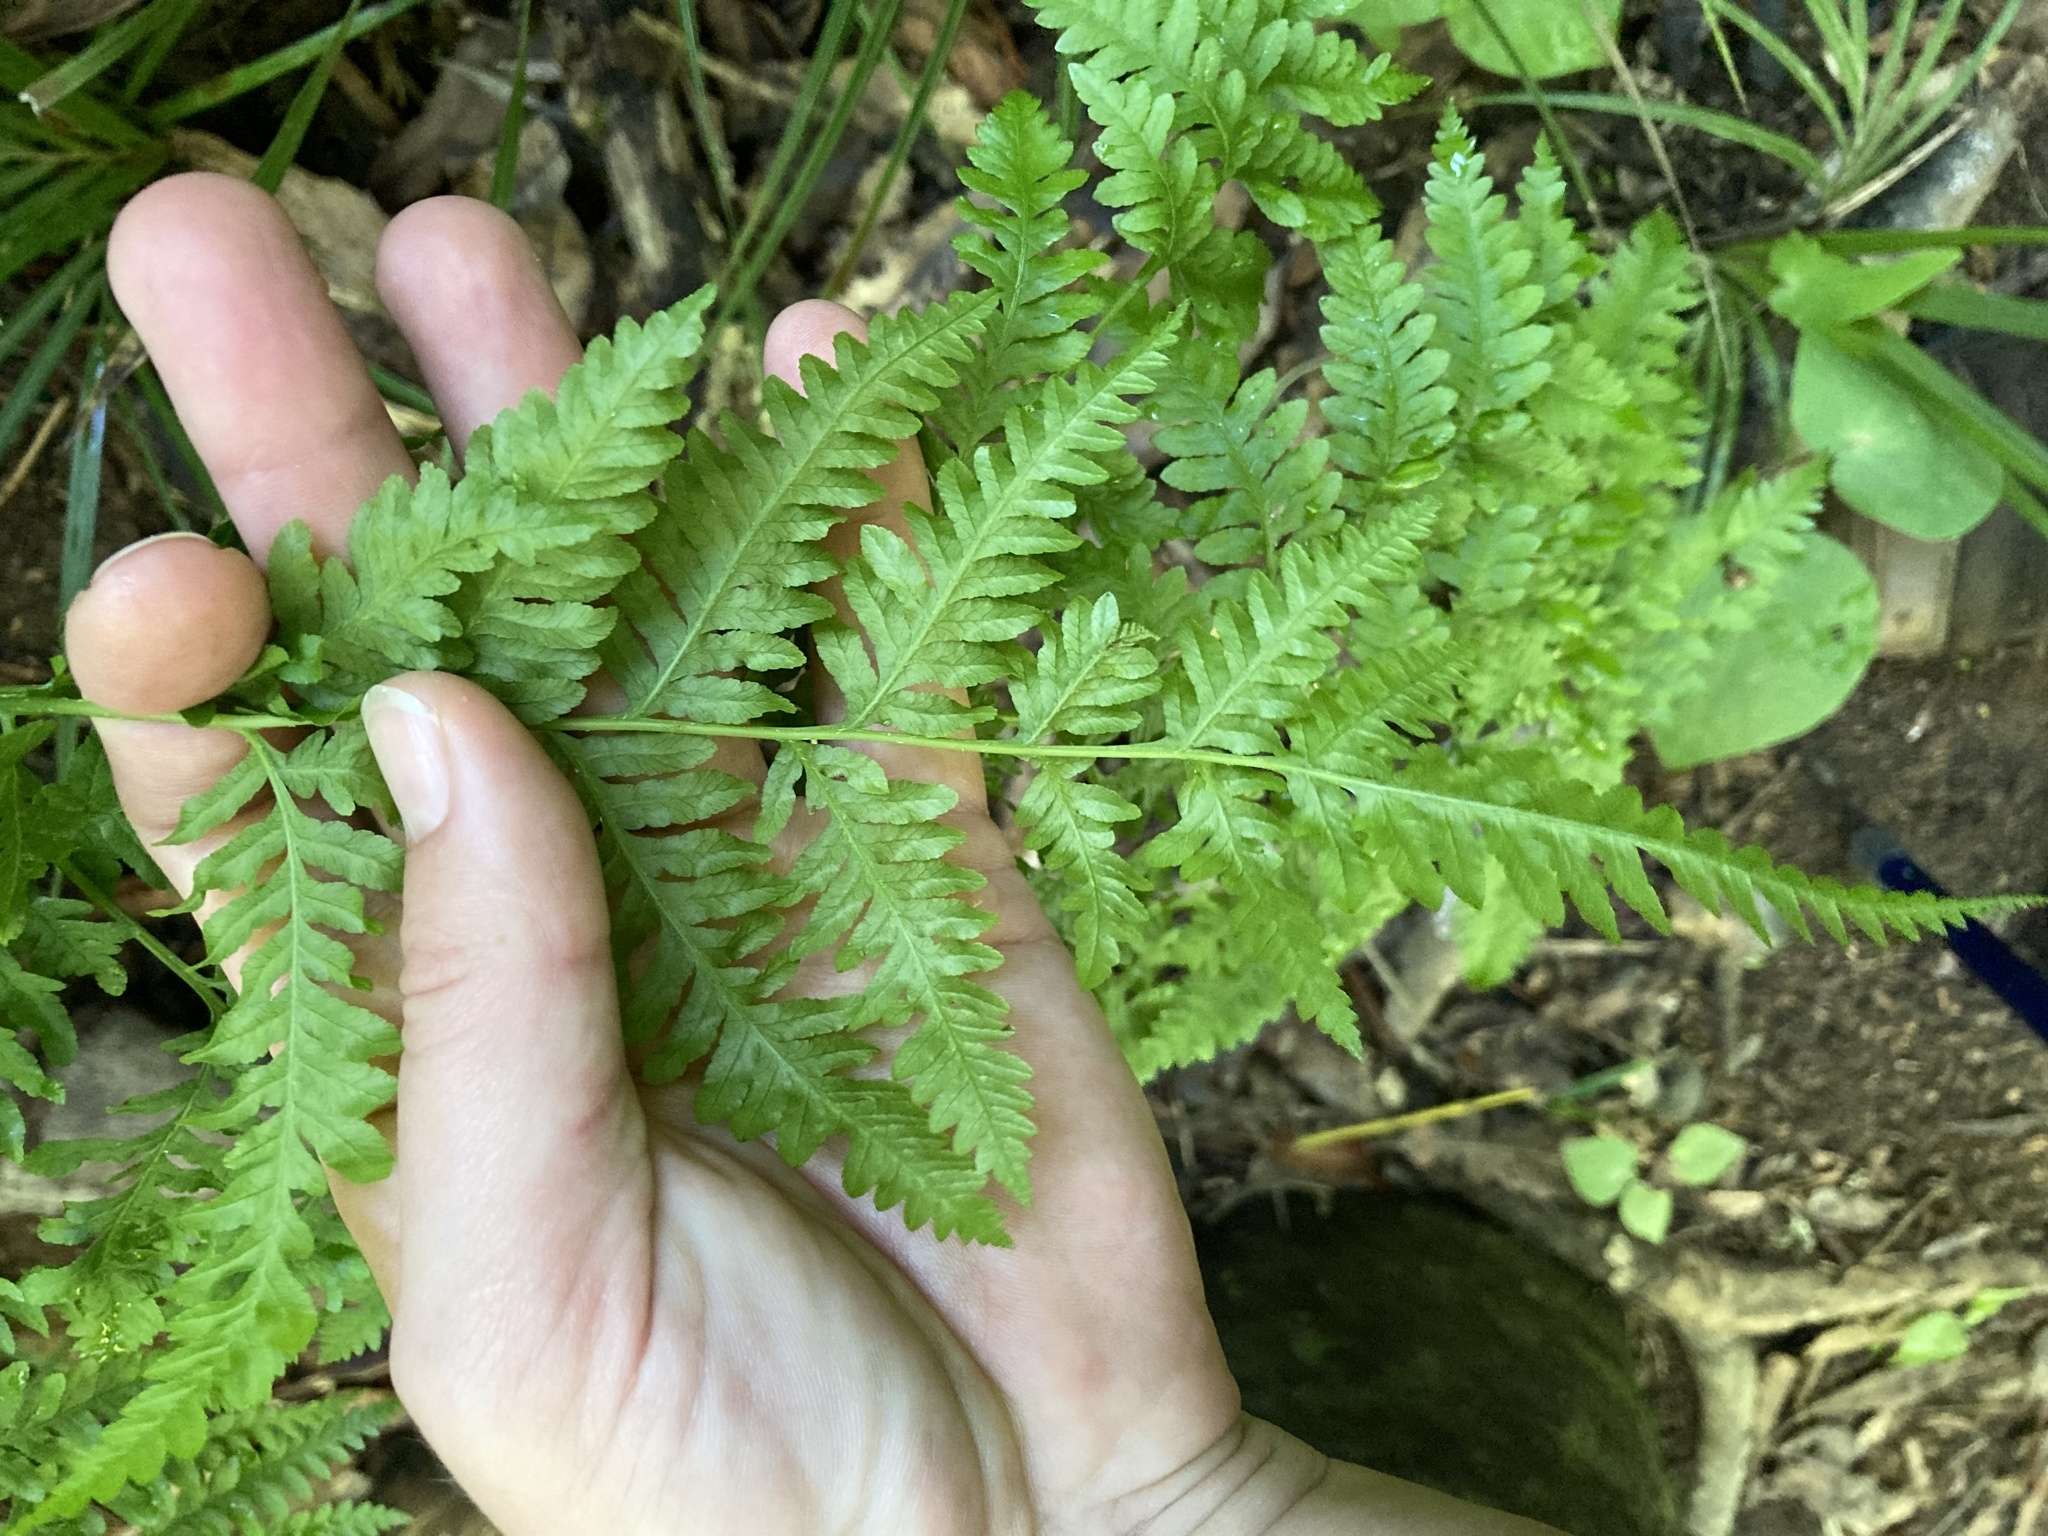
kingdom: Plantae
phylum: Tracheophyta
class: Polypodiopsida
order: Polypodiales
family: Pteridaceae
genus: Pteris
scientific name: Pteris tremula
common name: Australian brake
